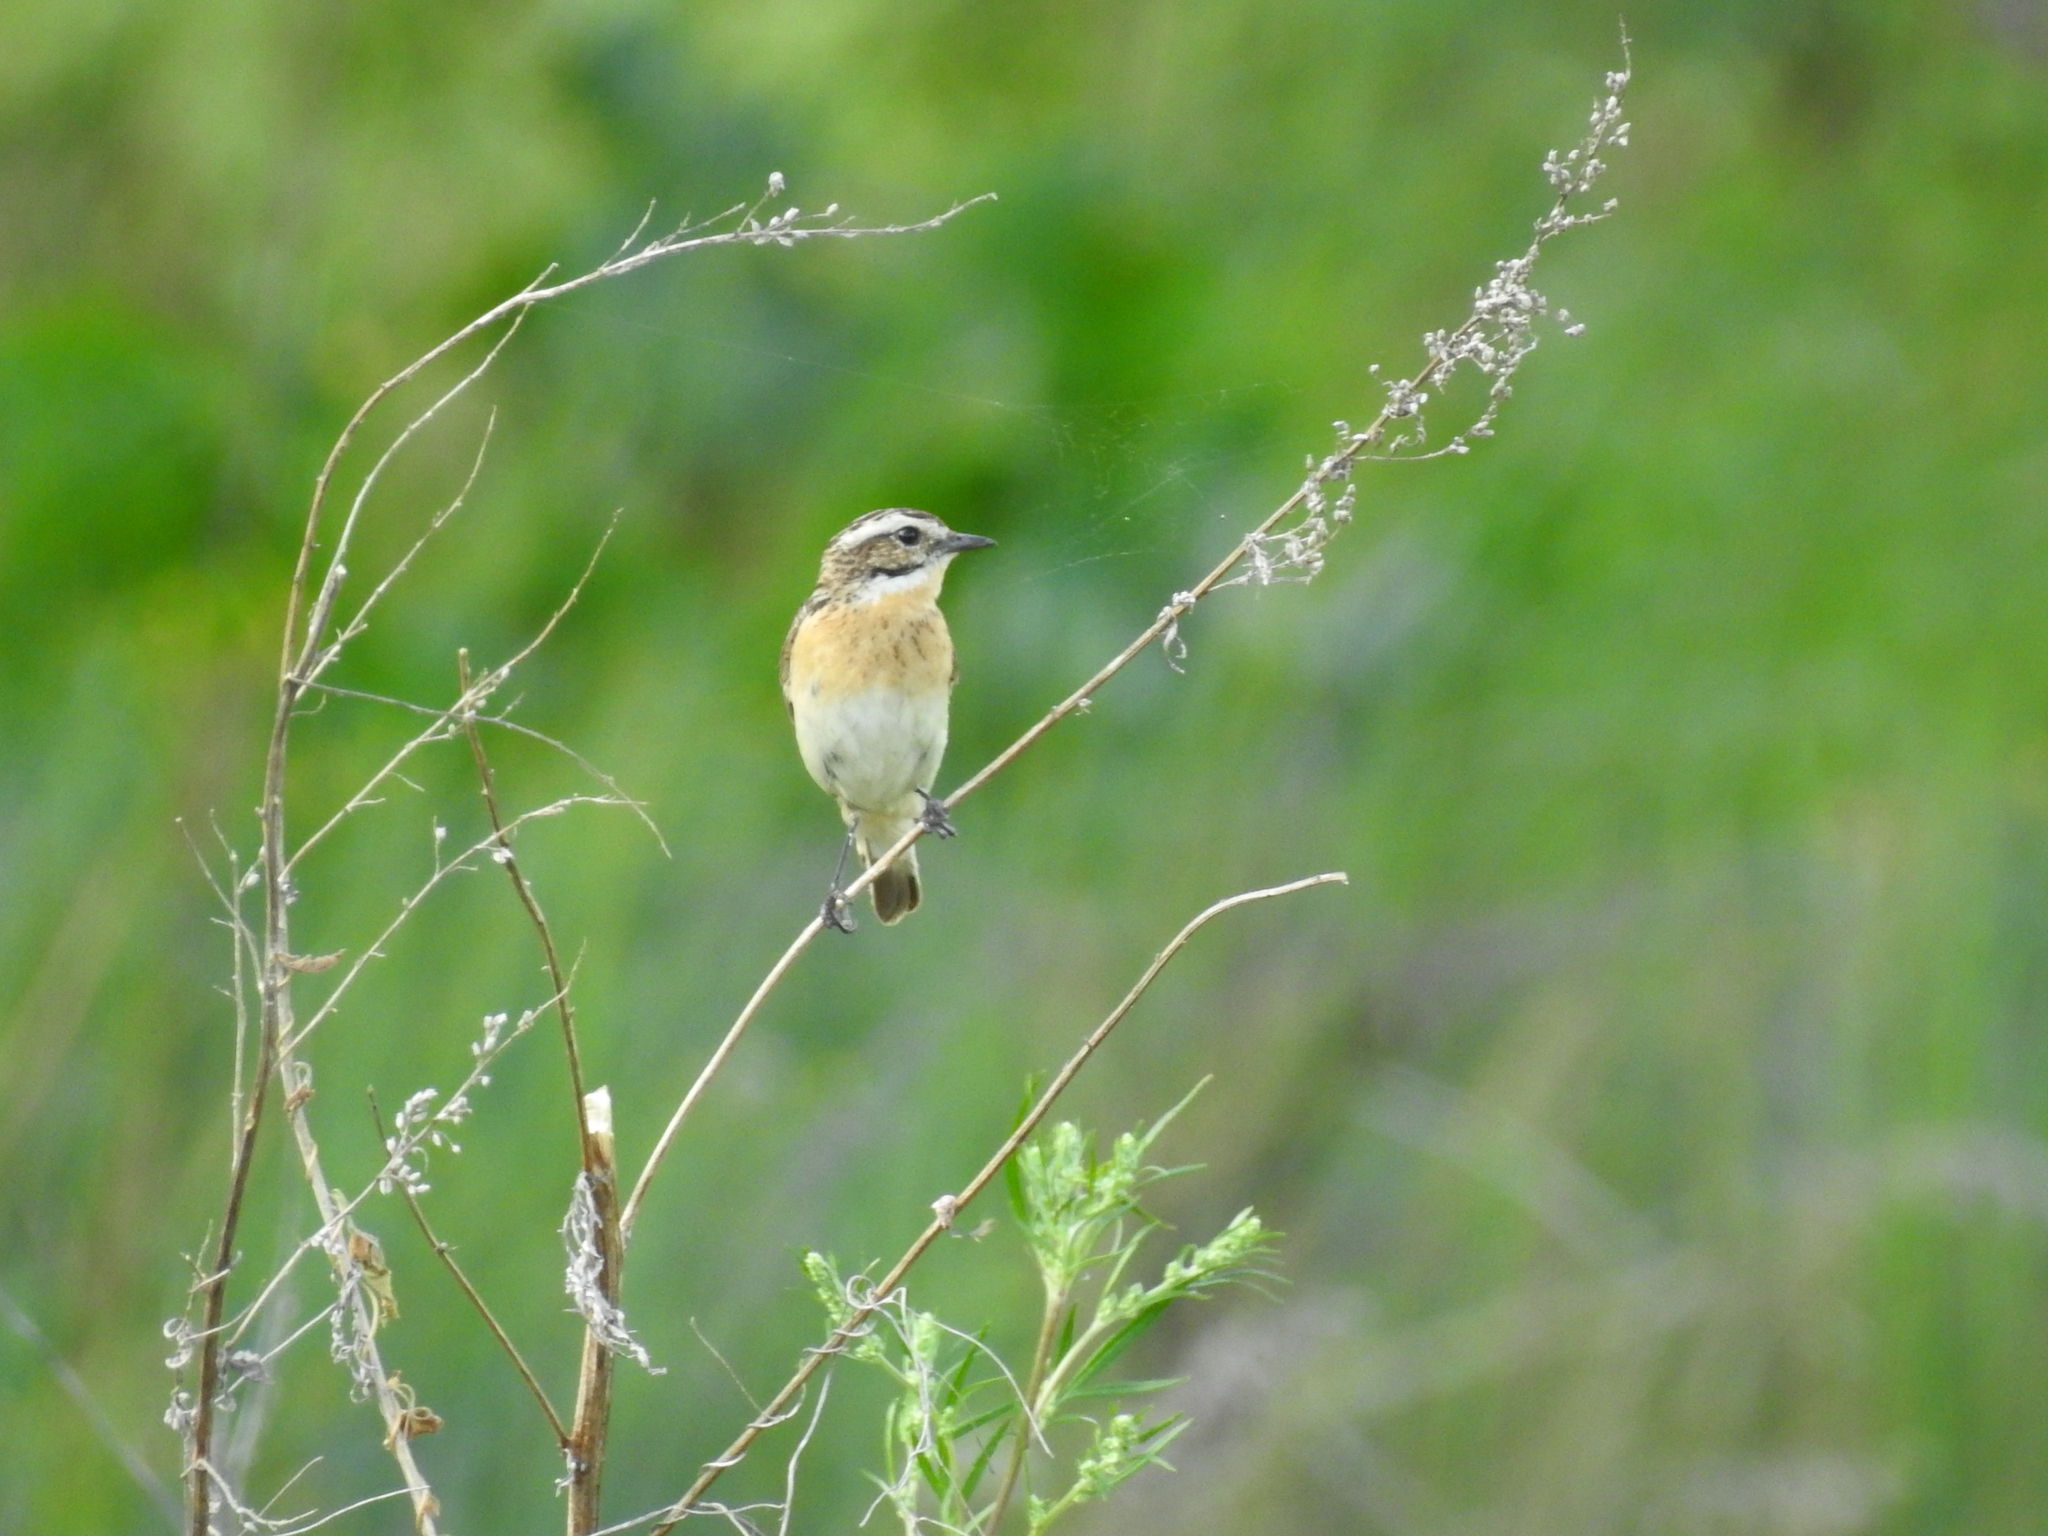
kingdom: Animalia
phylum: Chordata
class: Aves
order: Passeriformes
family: Muscicapidae
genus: Saxicola
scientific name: Saxicola rubetra
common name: Whinchat
